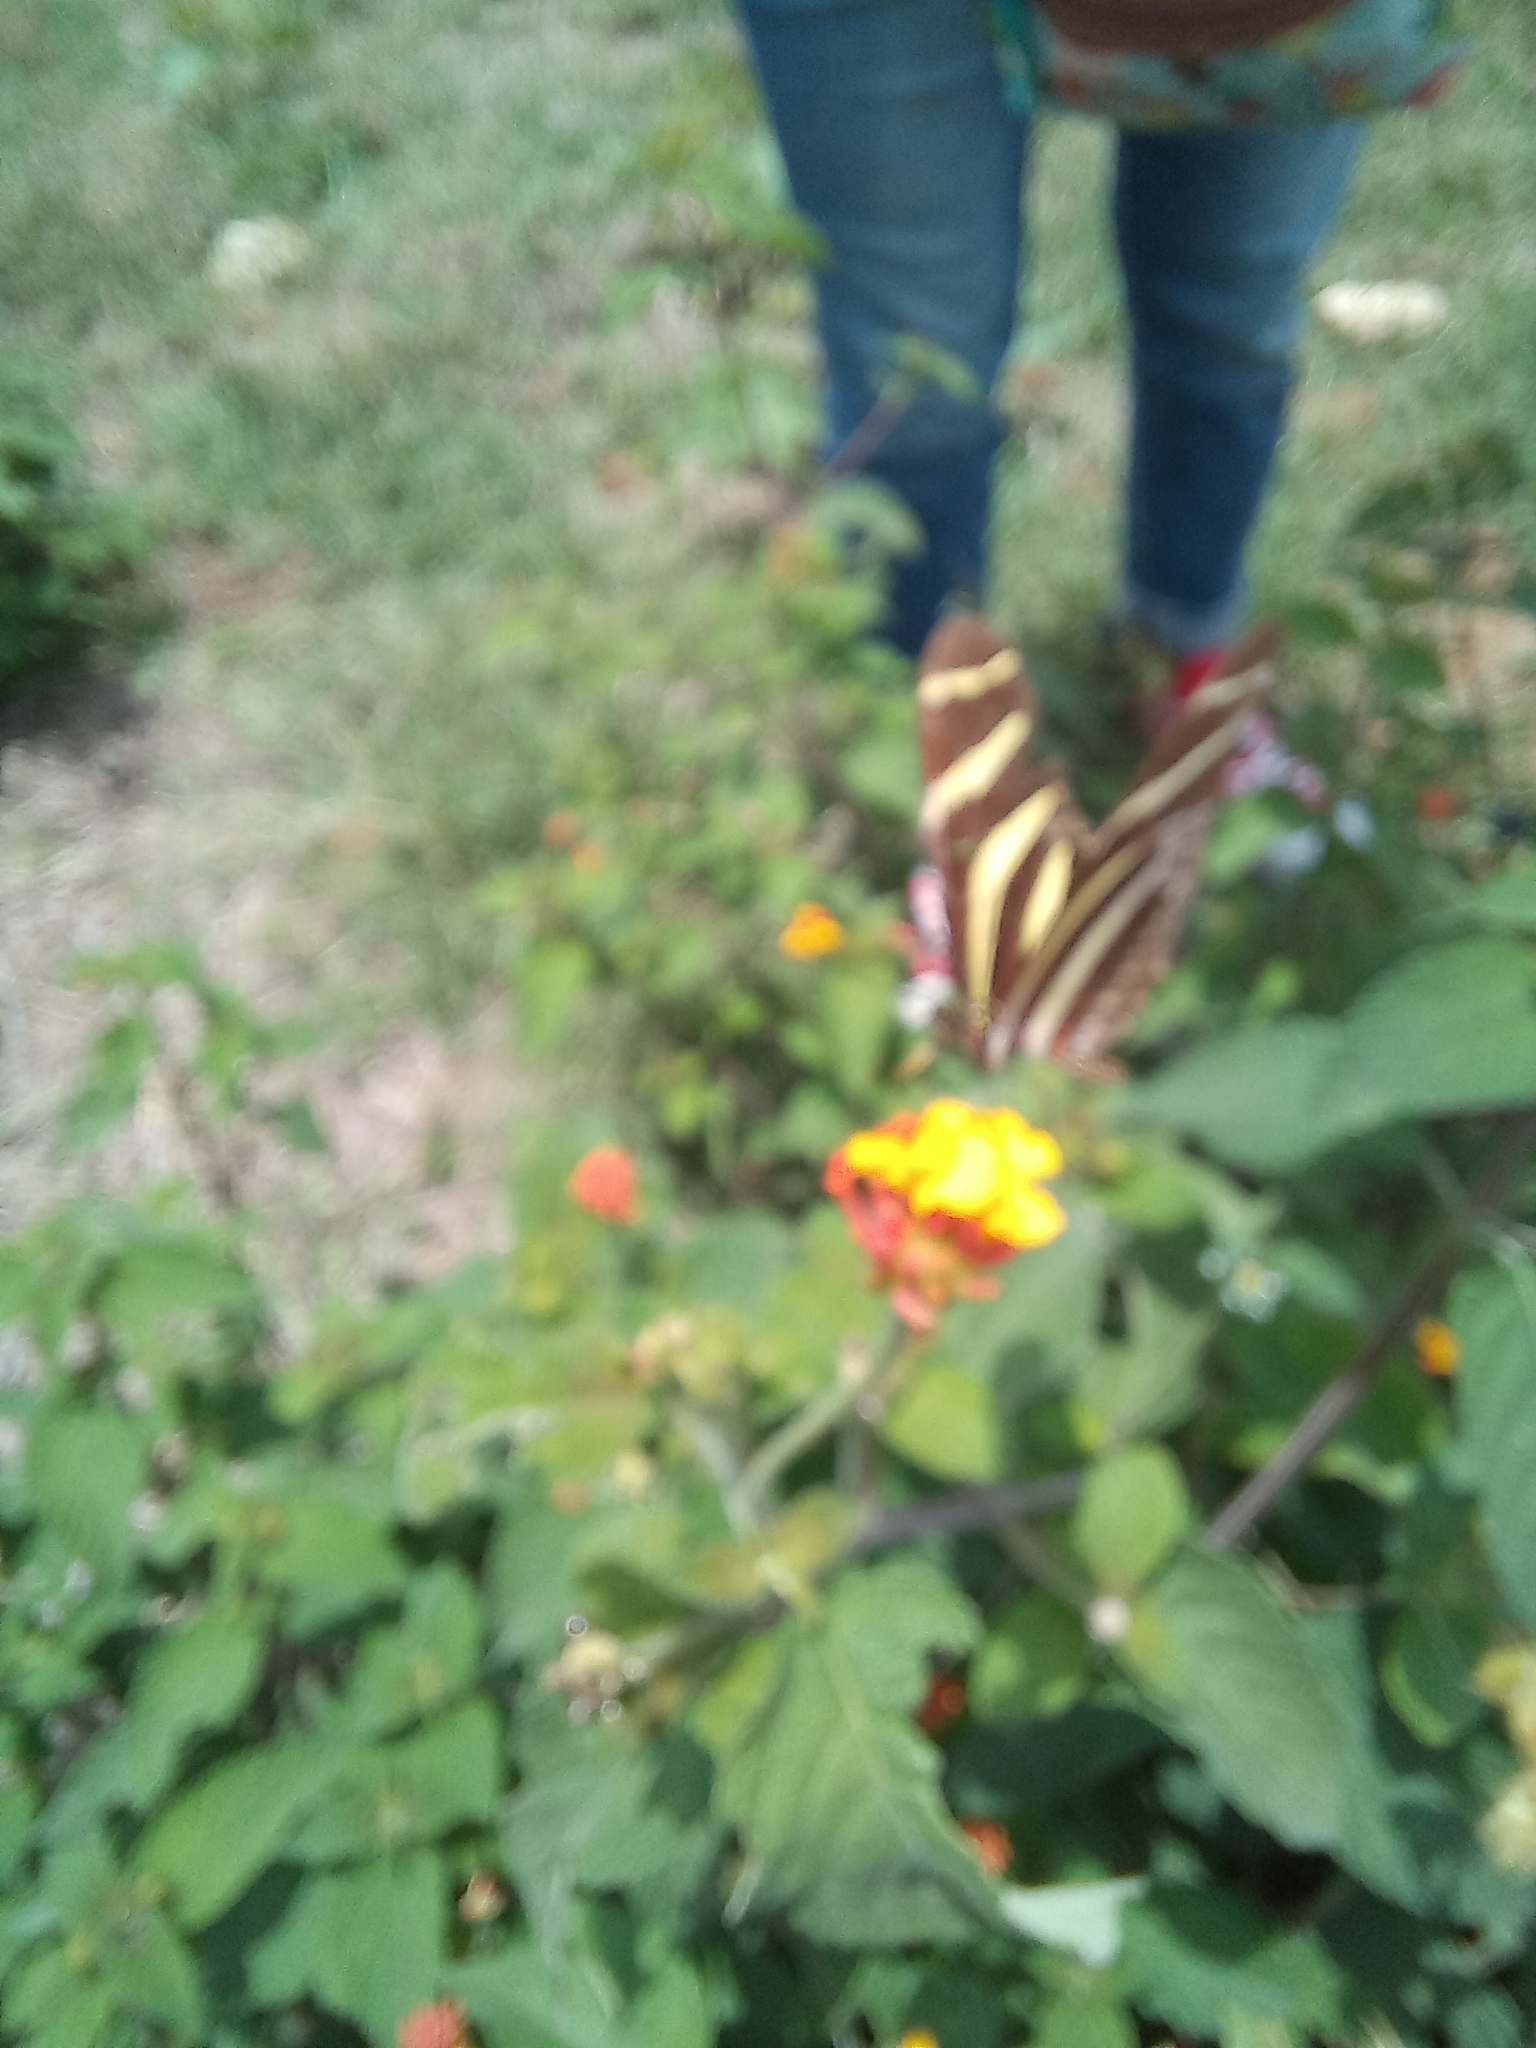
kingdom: Animalia
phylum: Arthropoda
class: Insecta
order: Lepidoptera
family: Nymphalidae
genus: Heliconius
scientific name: Heliconius charithonia
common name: Zebra long wing
